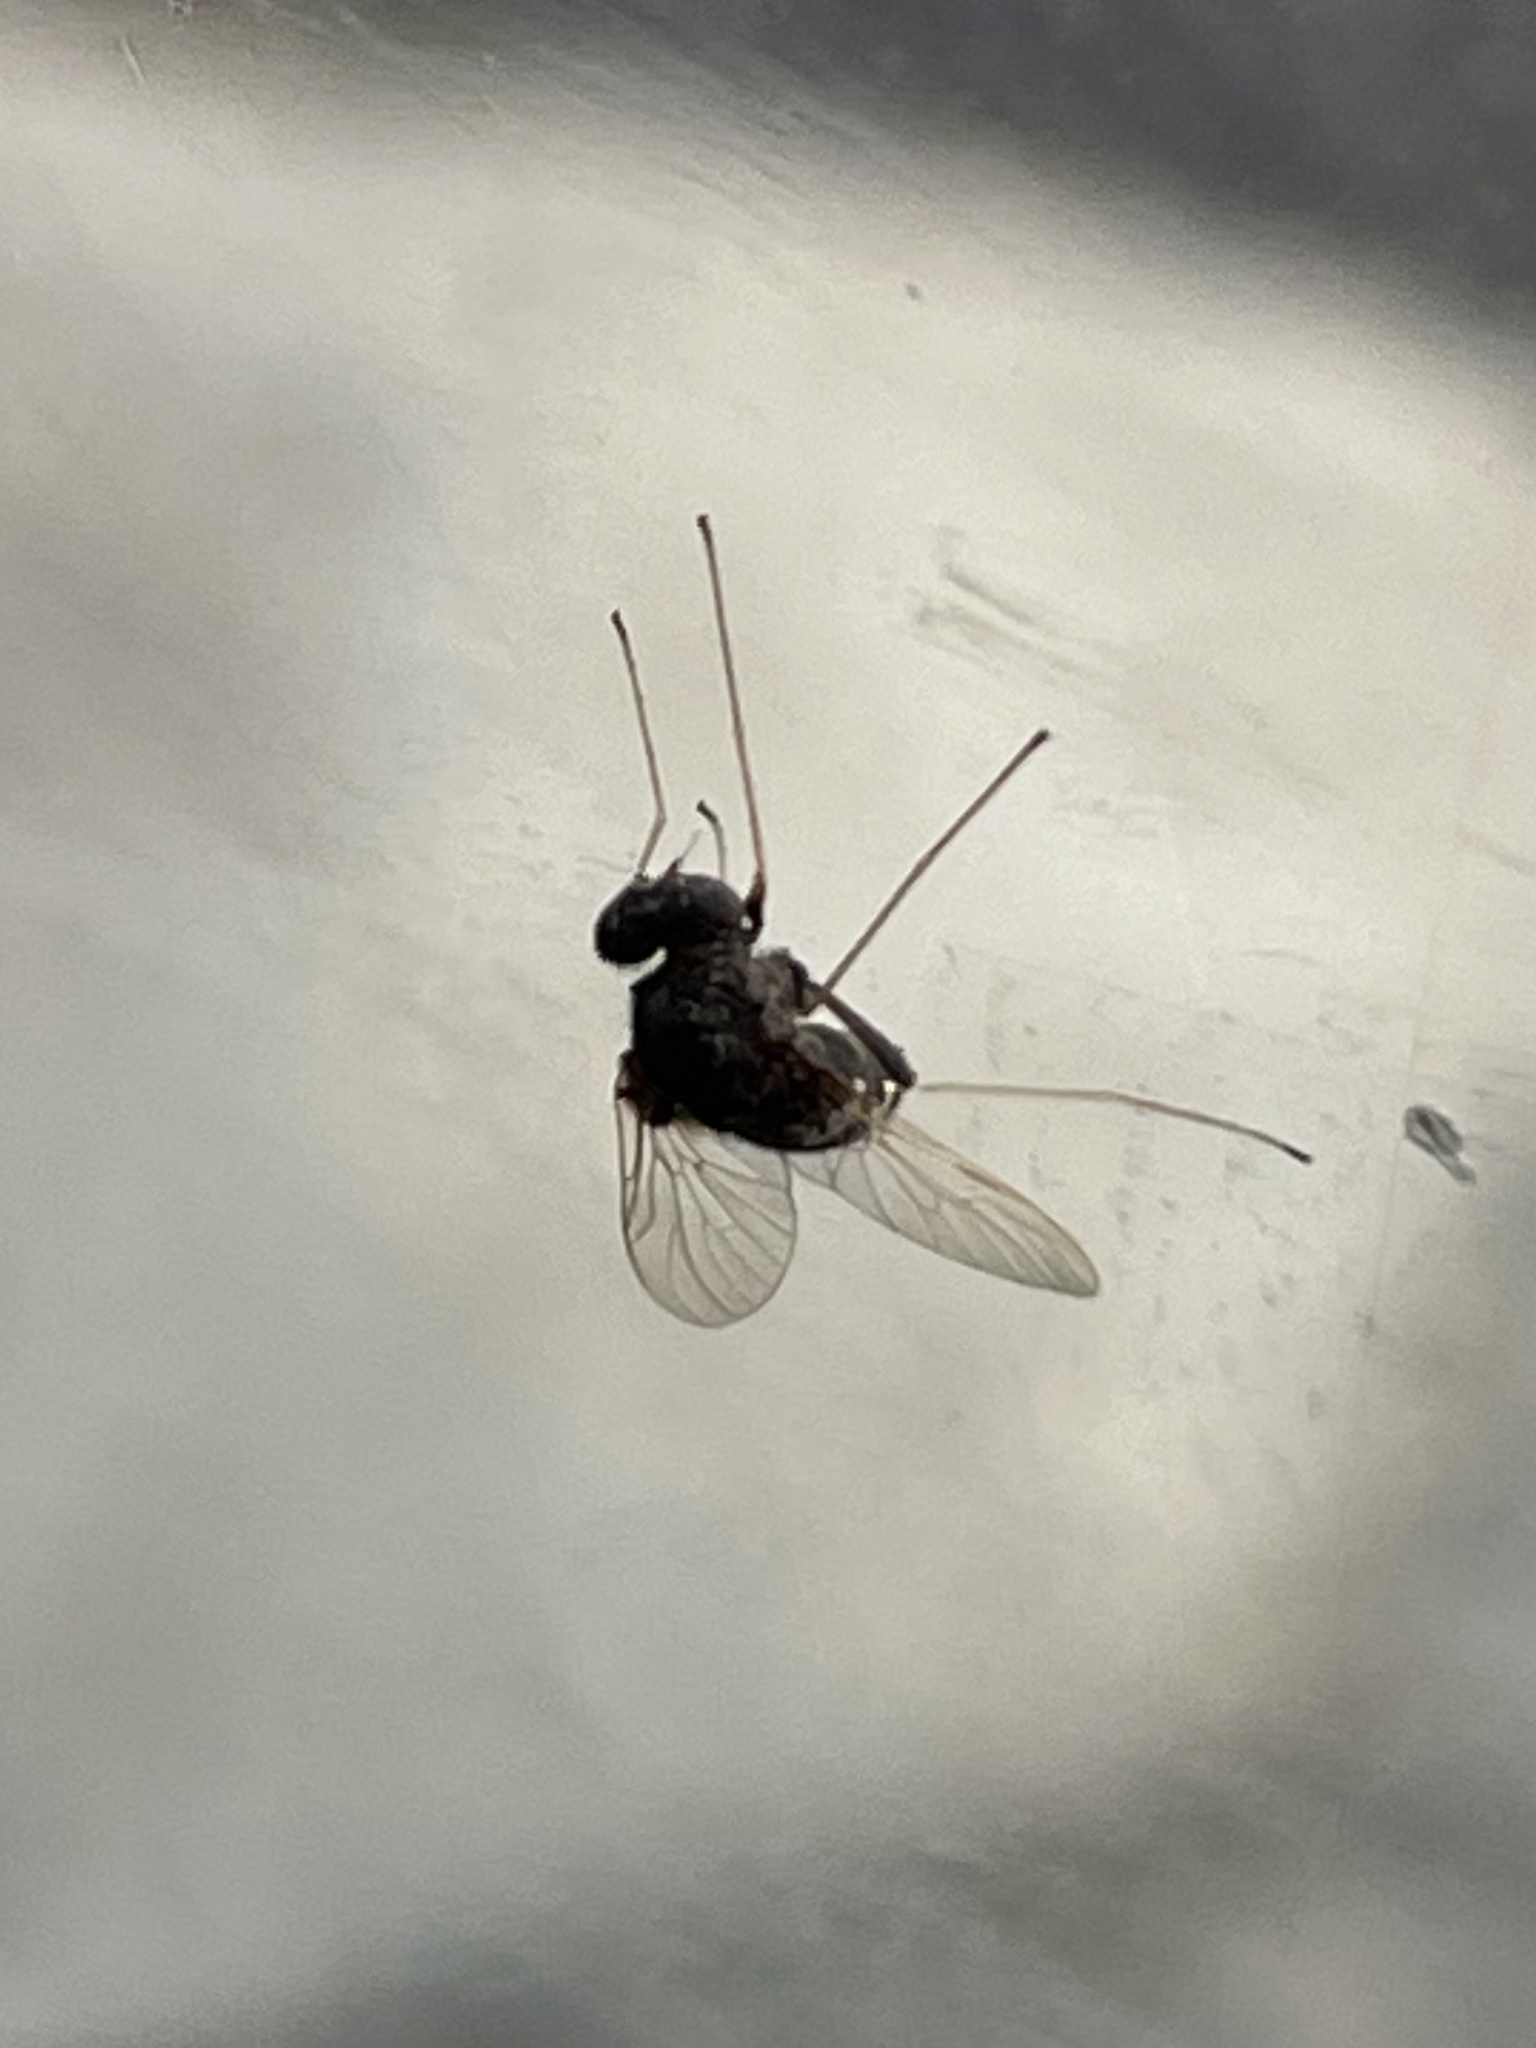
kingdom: Animalia
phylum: Arthropoda
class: Insecta
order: Diptera
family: Rhagionidae
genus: Chrysopilus
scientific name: Chrysopilus basilaris
